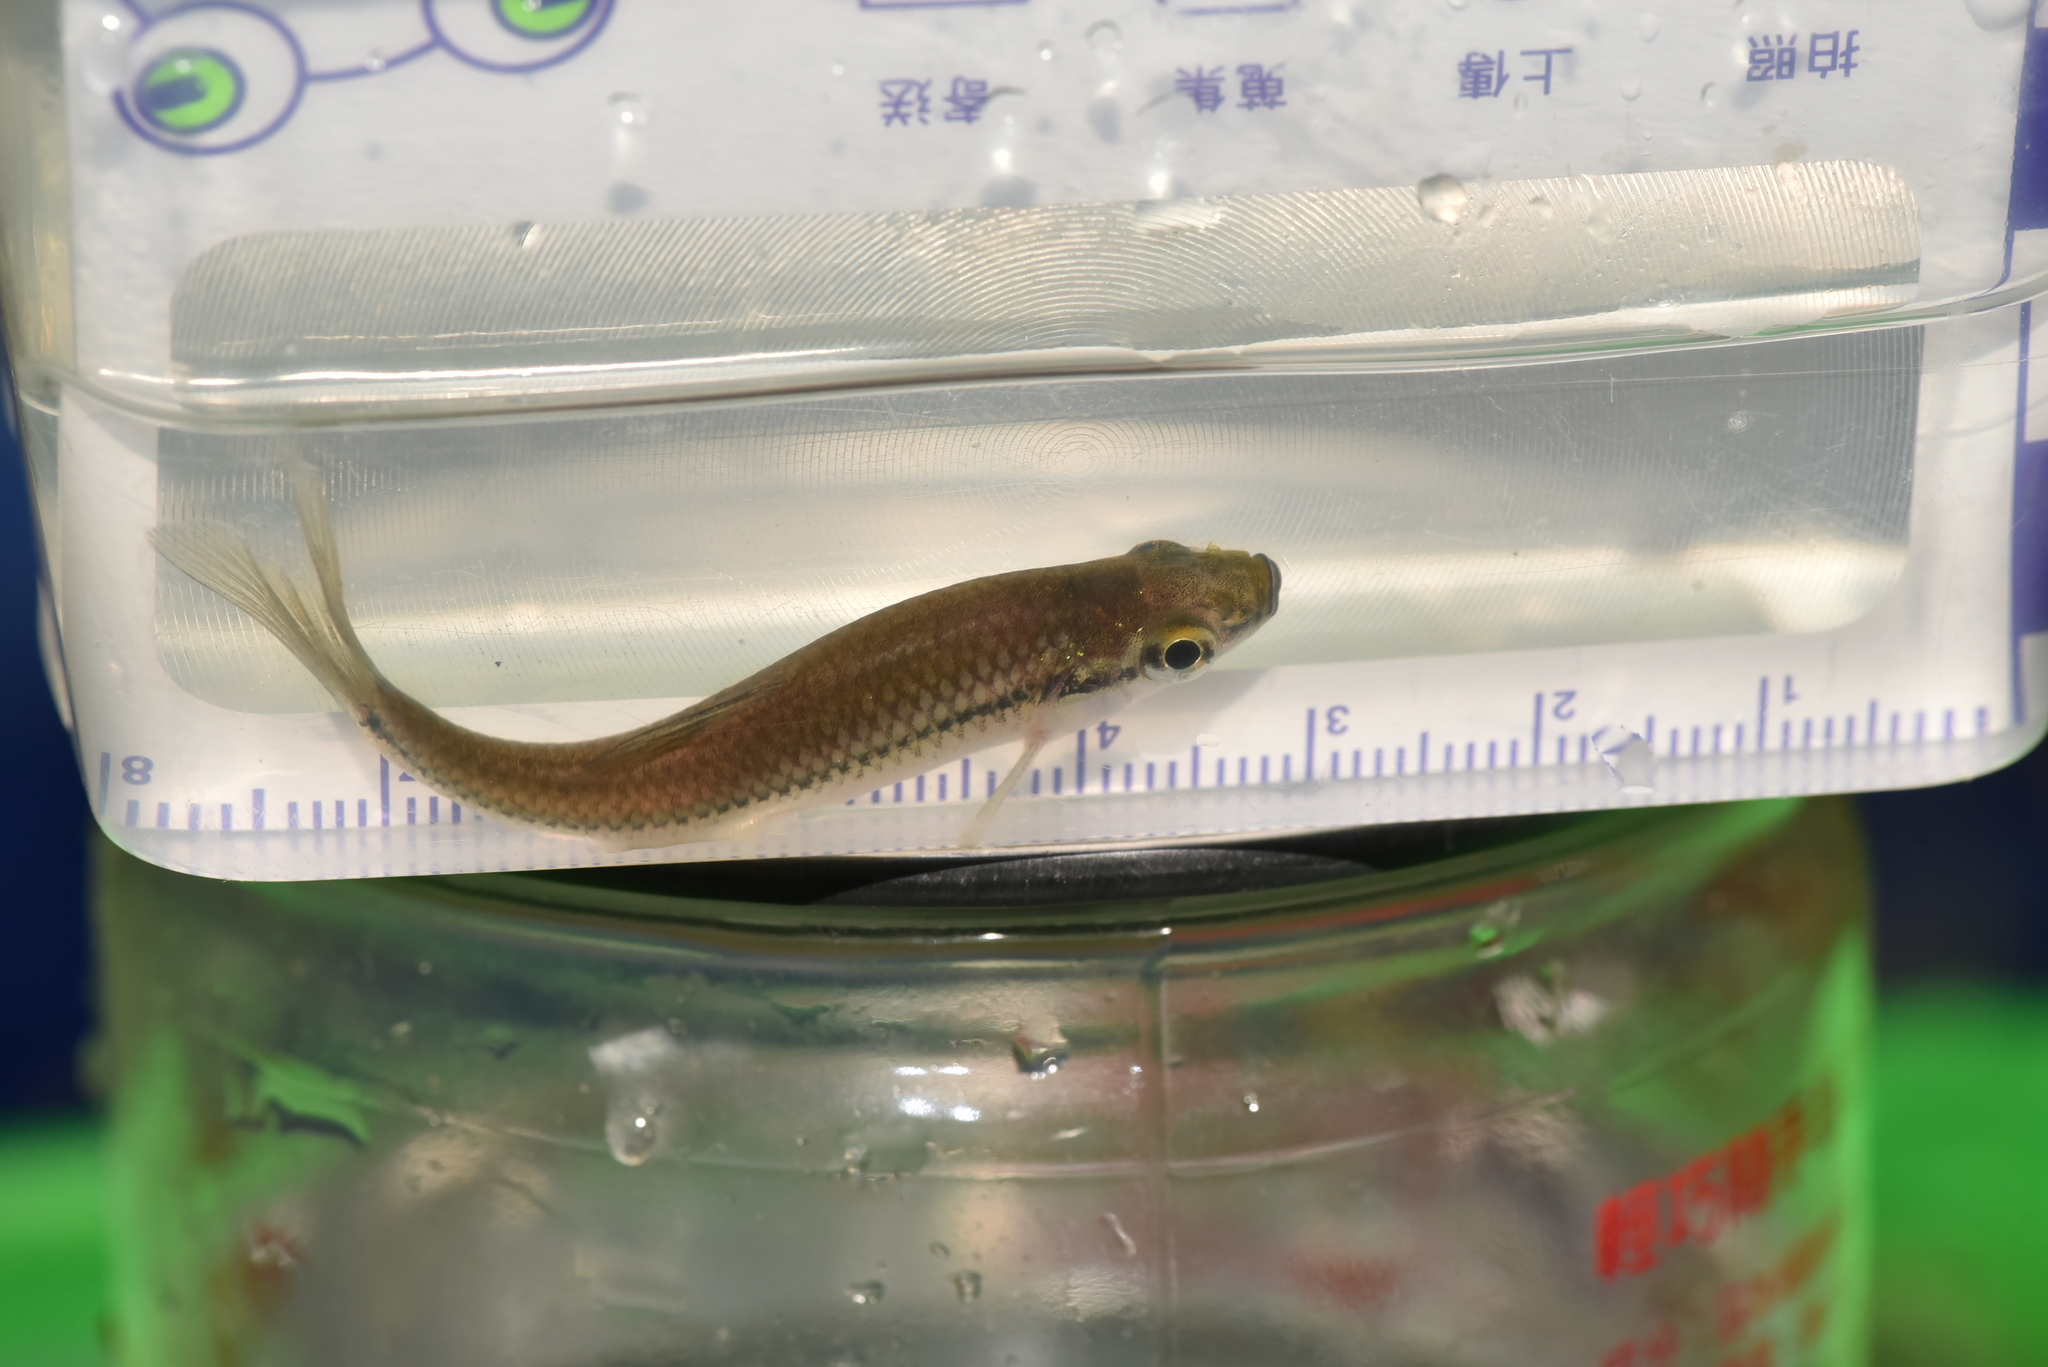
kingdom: Animalia
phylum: Chordata
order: Cypriniformes
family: Cyprinidae
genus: Pseudorasbora
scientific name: Pseudorasbora parva
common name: Topmouth gudgeon
